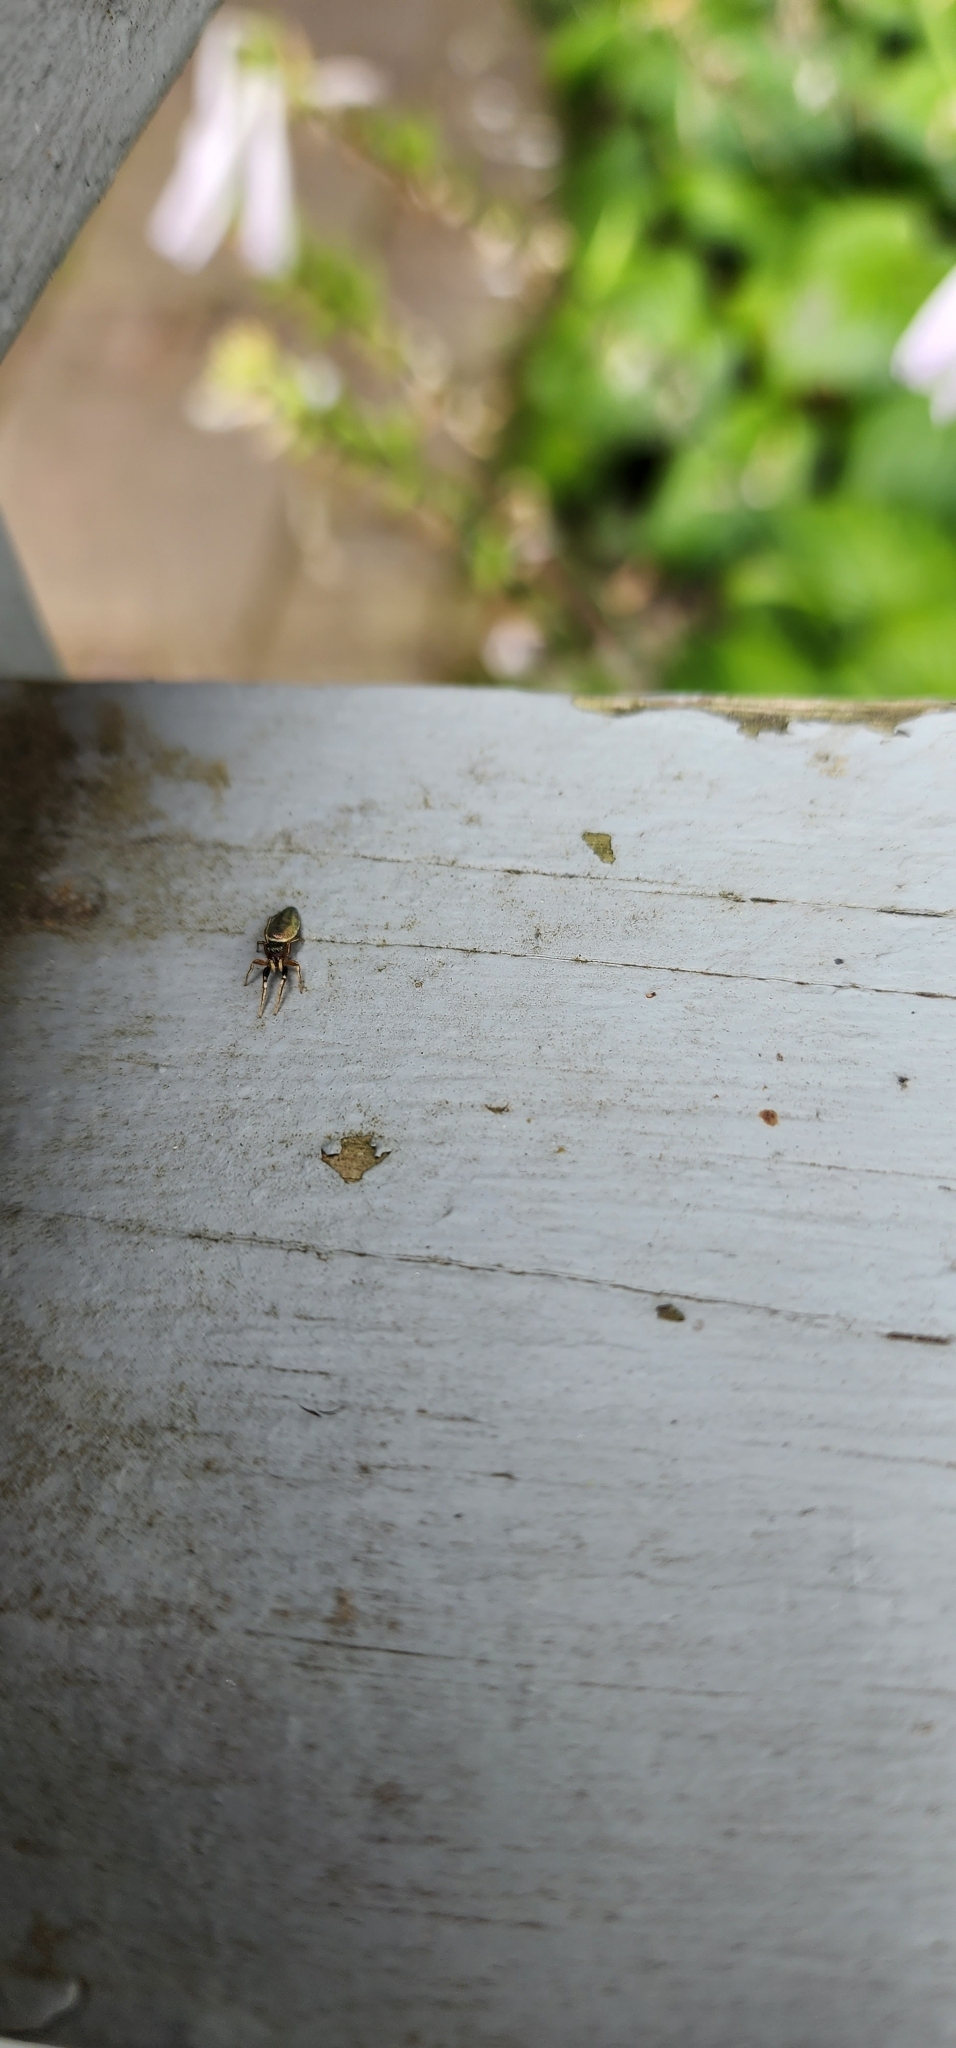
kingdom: Animalia
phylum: Arthropoda
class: Arachnida
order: Araneae
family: Salticidae
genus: Tutelina
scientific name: Tutelina elegans
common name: Thin-spined jumping spider
